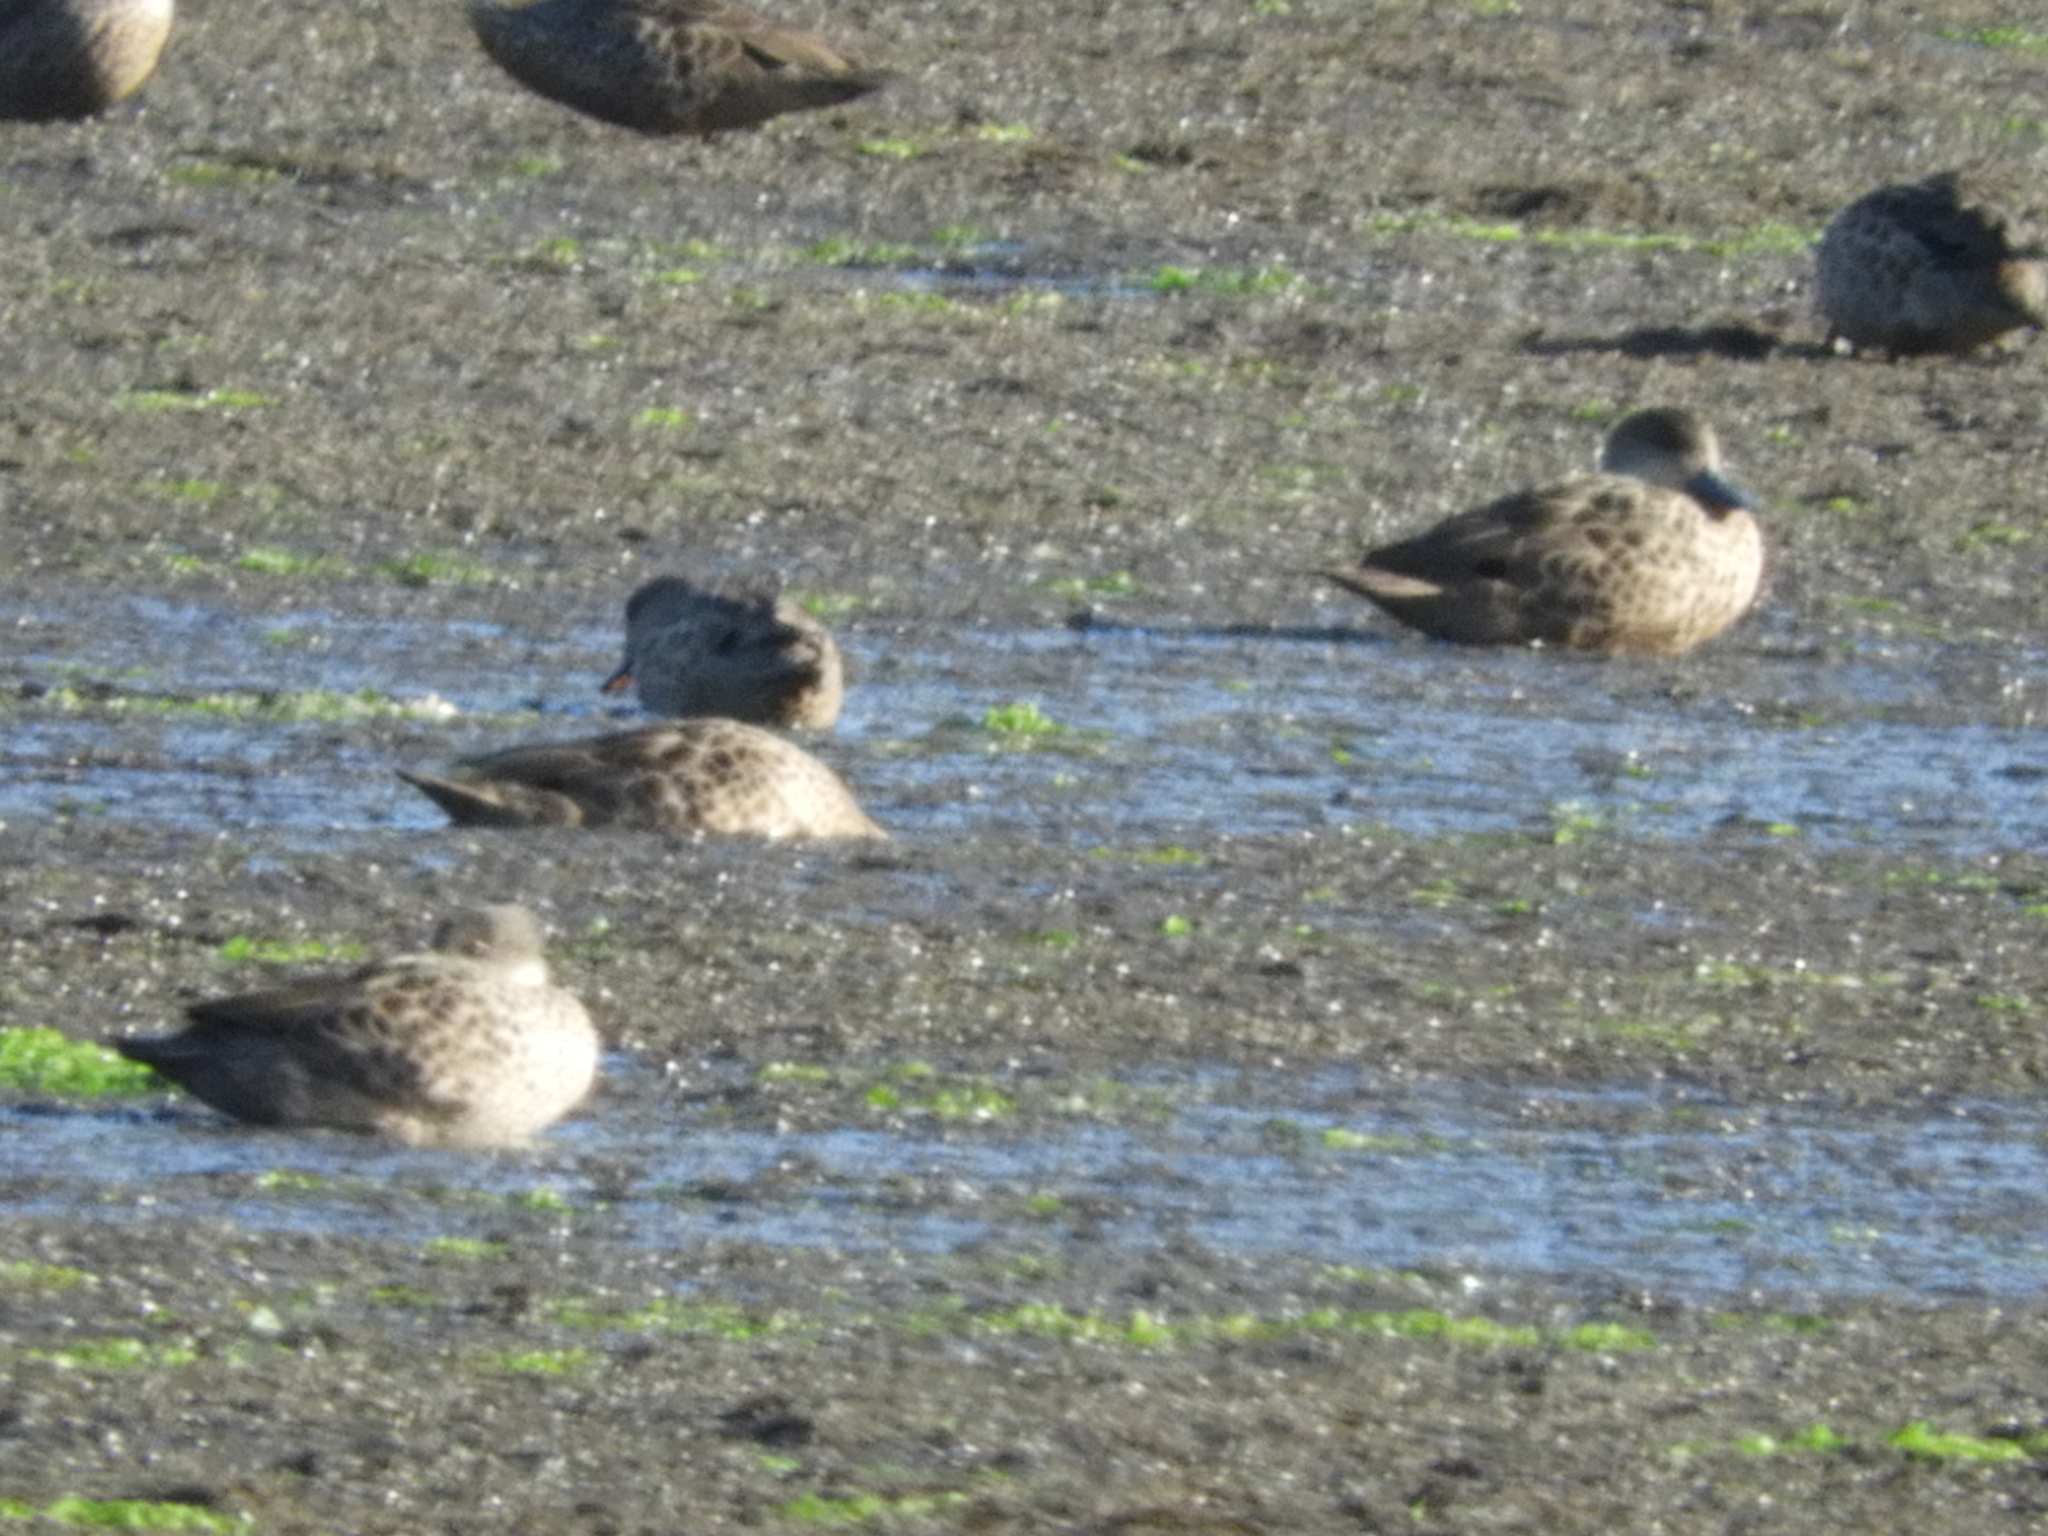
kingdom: Animalia
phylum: Chordata
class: Aves
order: Anseriformes
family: Anatidae
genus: Anas
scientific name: Anas gracilis
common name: Grey teal
